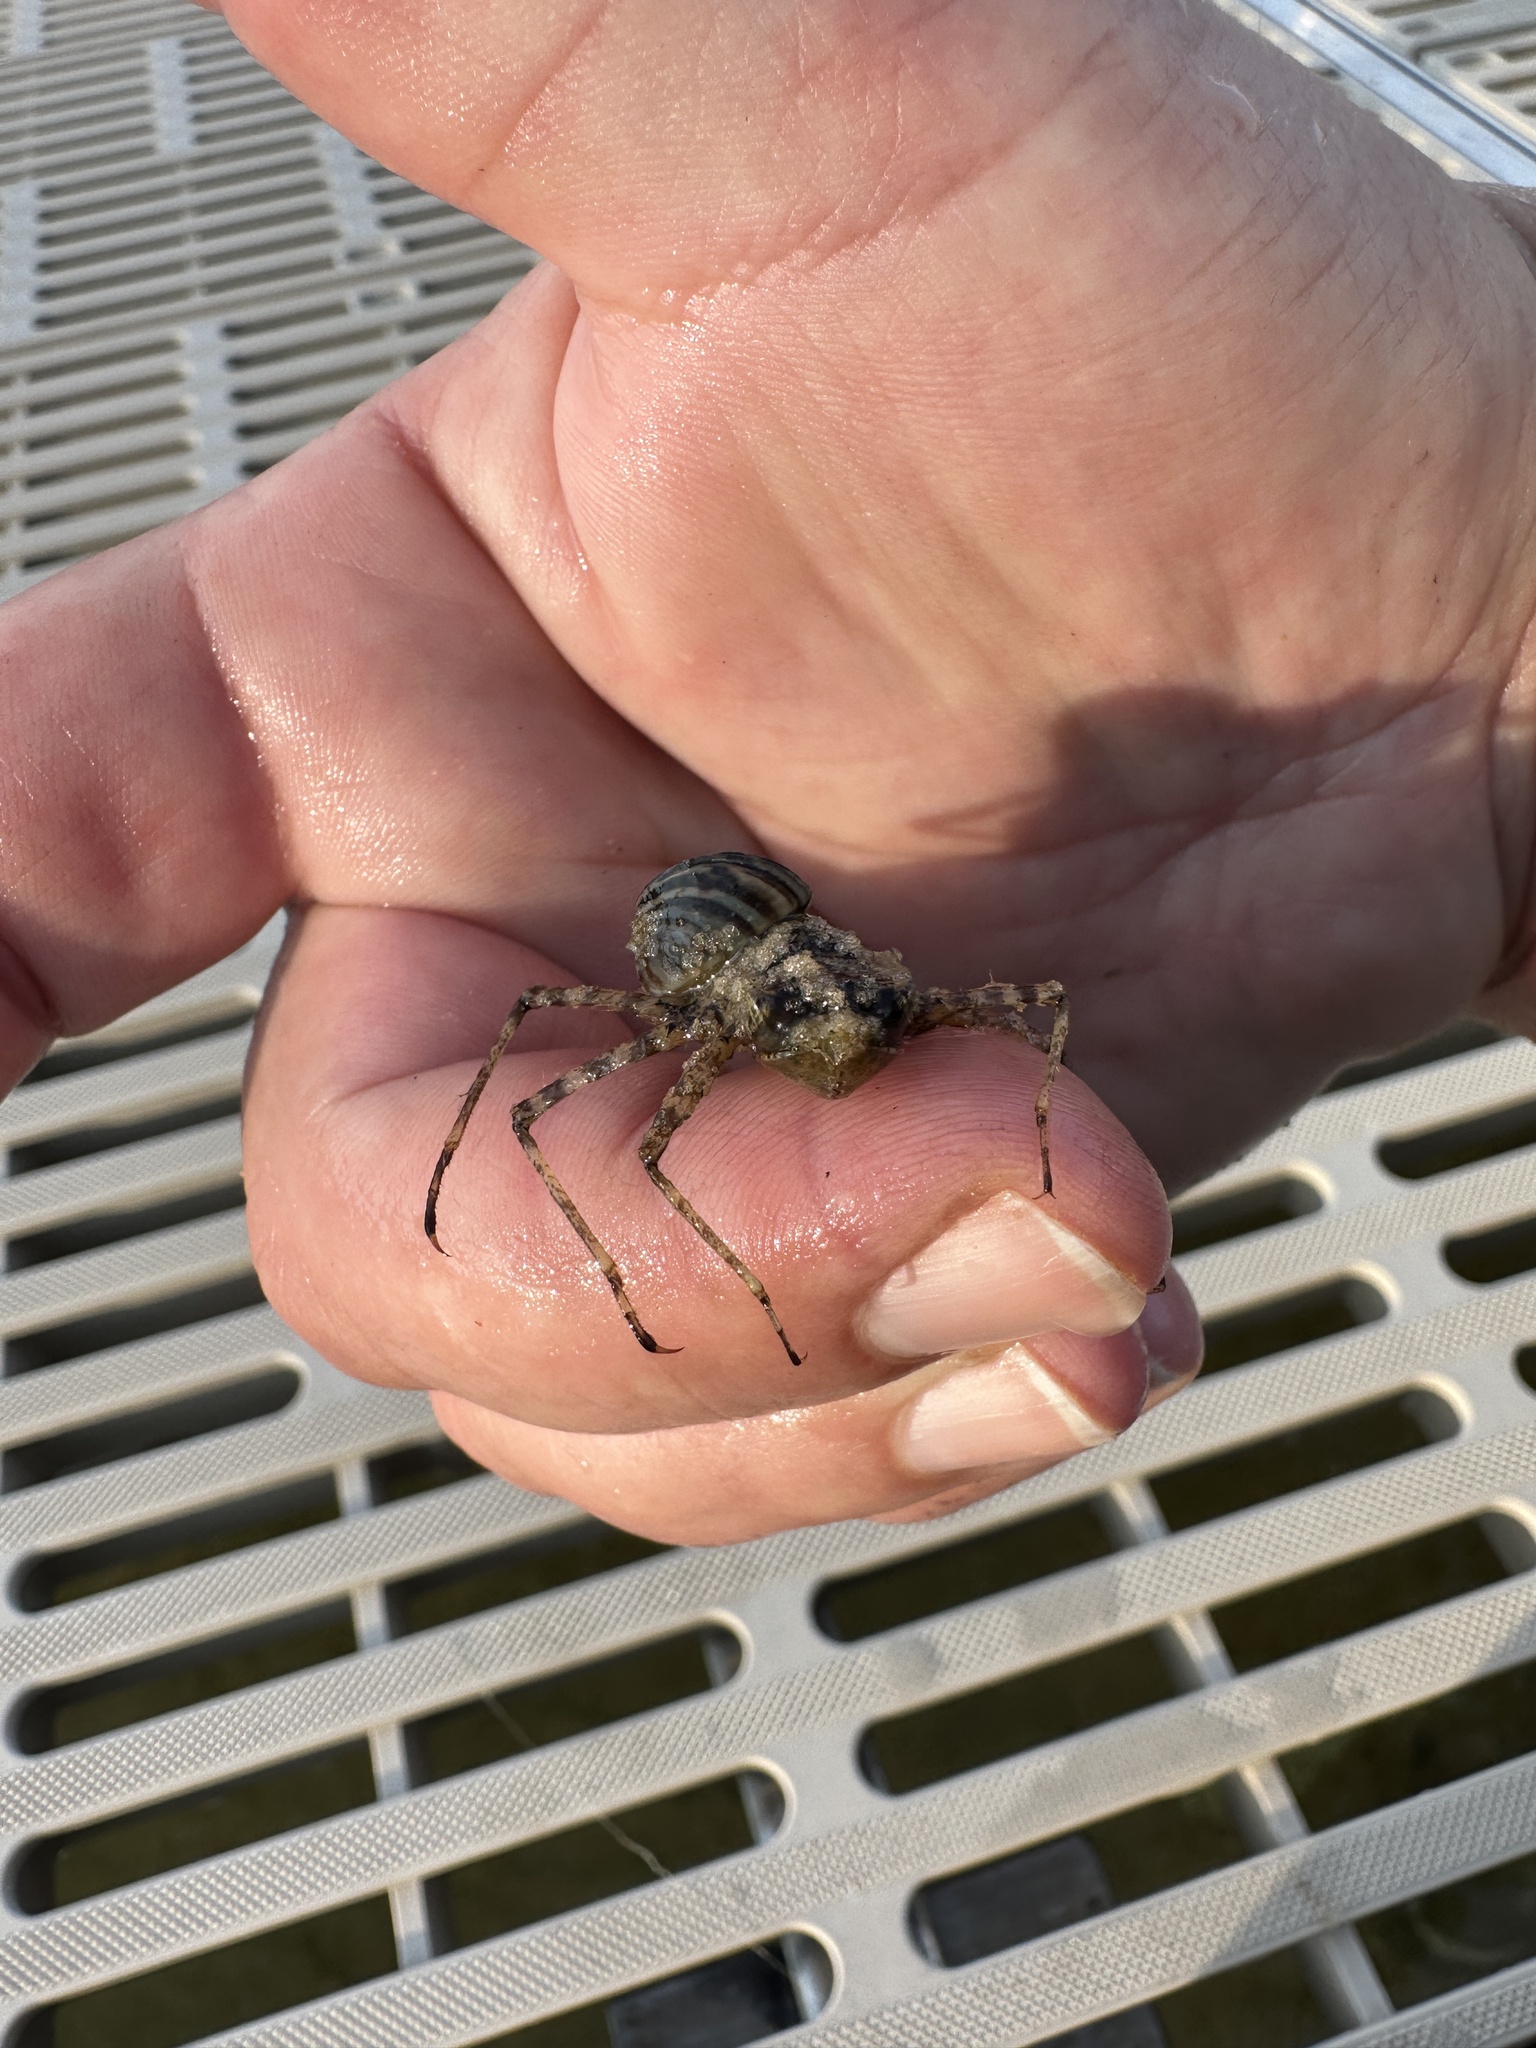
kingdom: Animalia
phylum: Mollusca
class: Bivalvia
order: Myida
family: Dreissenidae
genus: Dreissena
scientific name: Dreissena polymorpha
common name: Zebra mussel
